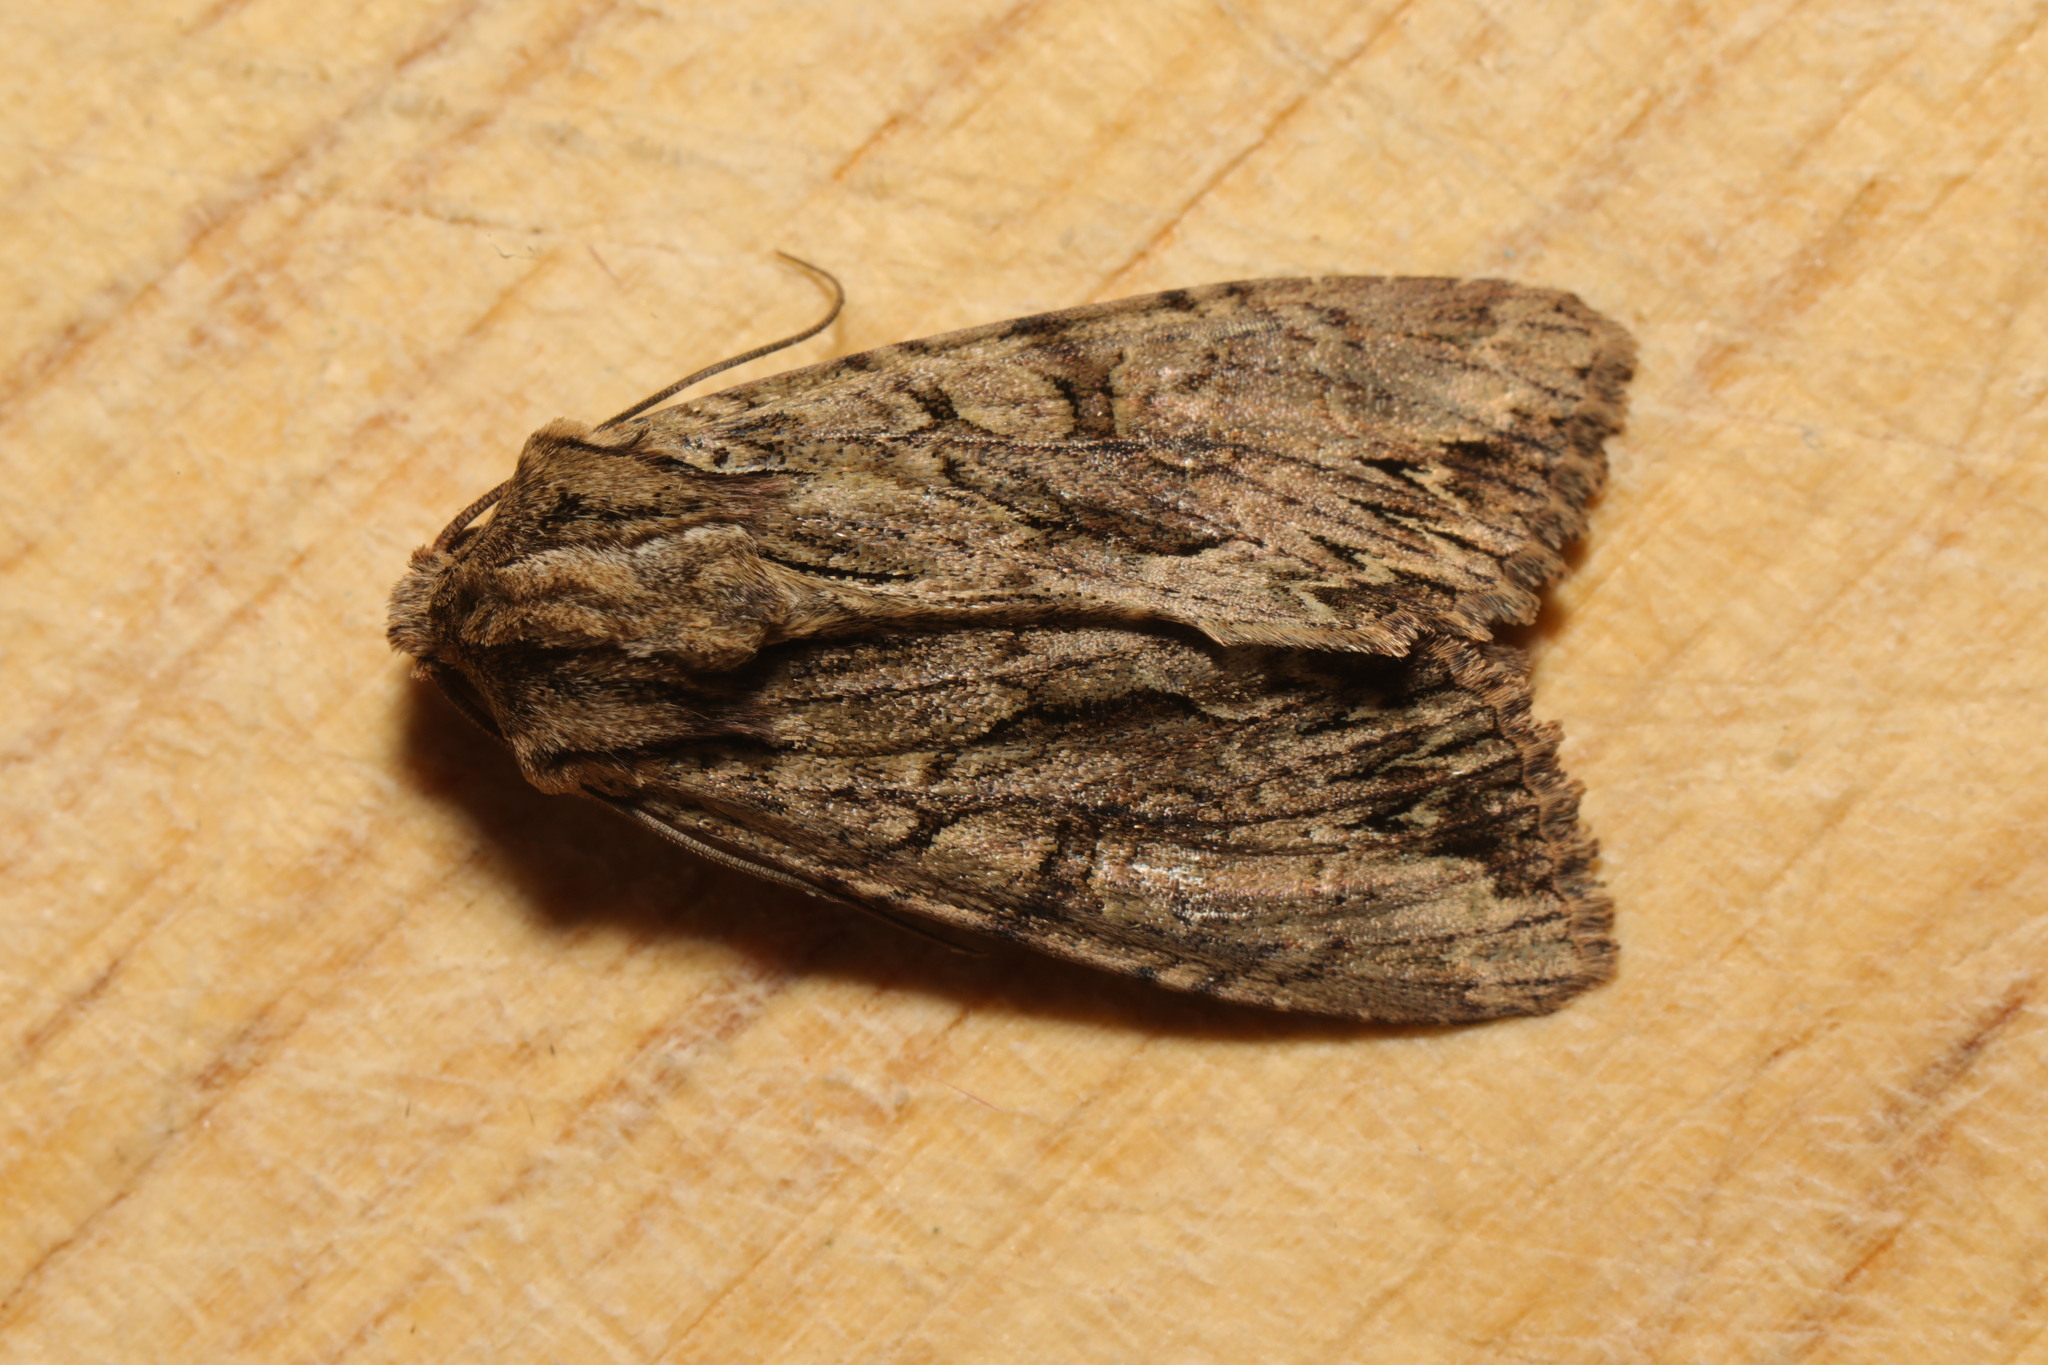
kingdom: Animalia
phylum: Arthropoda
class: Insecta
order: Lepidoptera
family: Noctuidae
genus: Apamea
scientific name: Apamea monoglypha
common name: Dark arches
